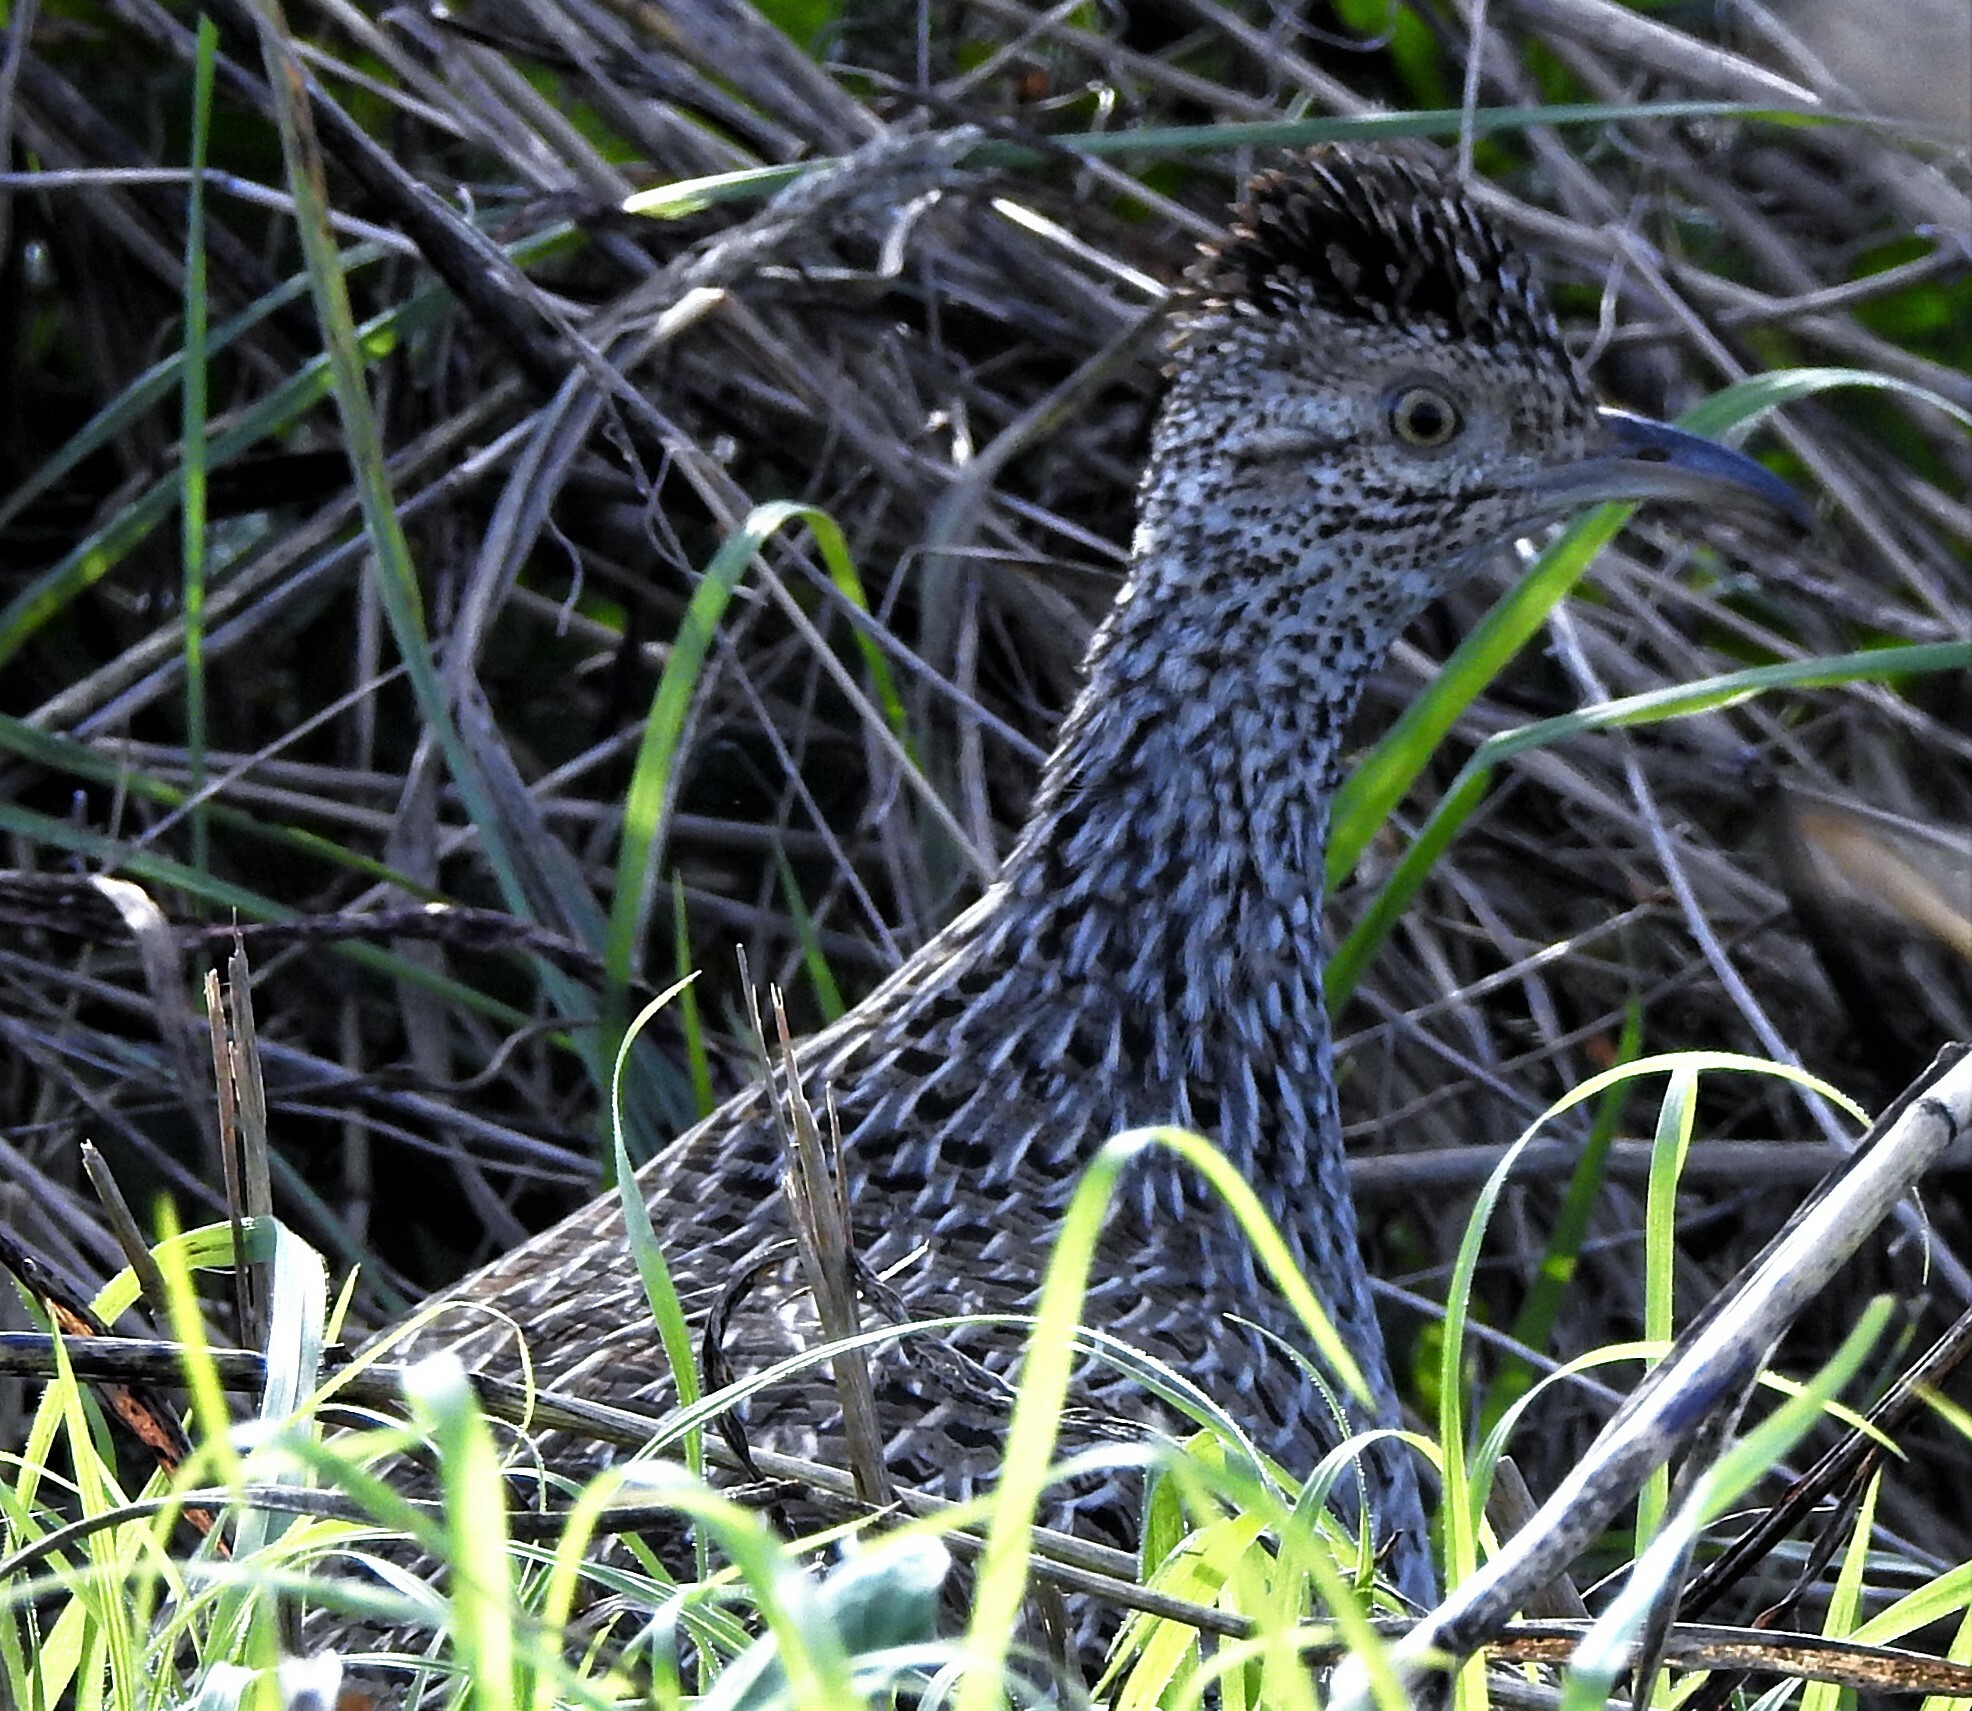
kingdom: Animalia
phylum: Chordata
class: Aves
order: Tinamiformes
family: Tinamidae
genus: Nothoprocta
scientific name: Nothoprocta cinerascens
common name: Brushland tinamou
